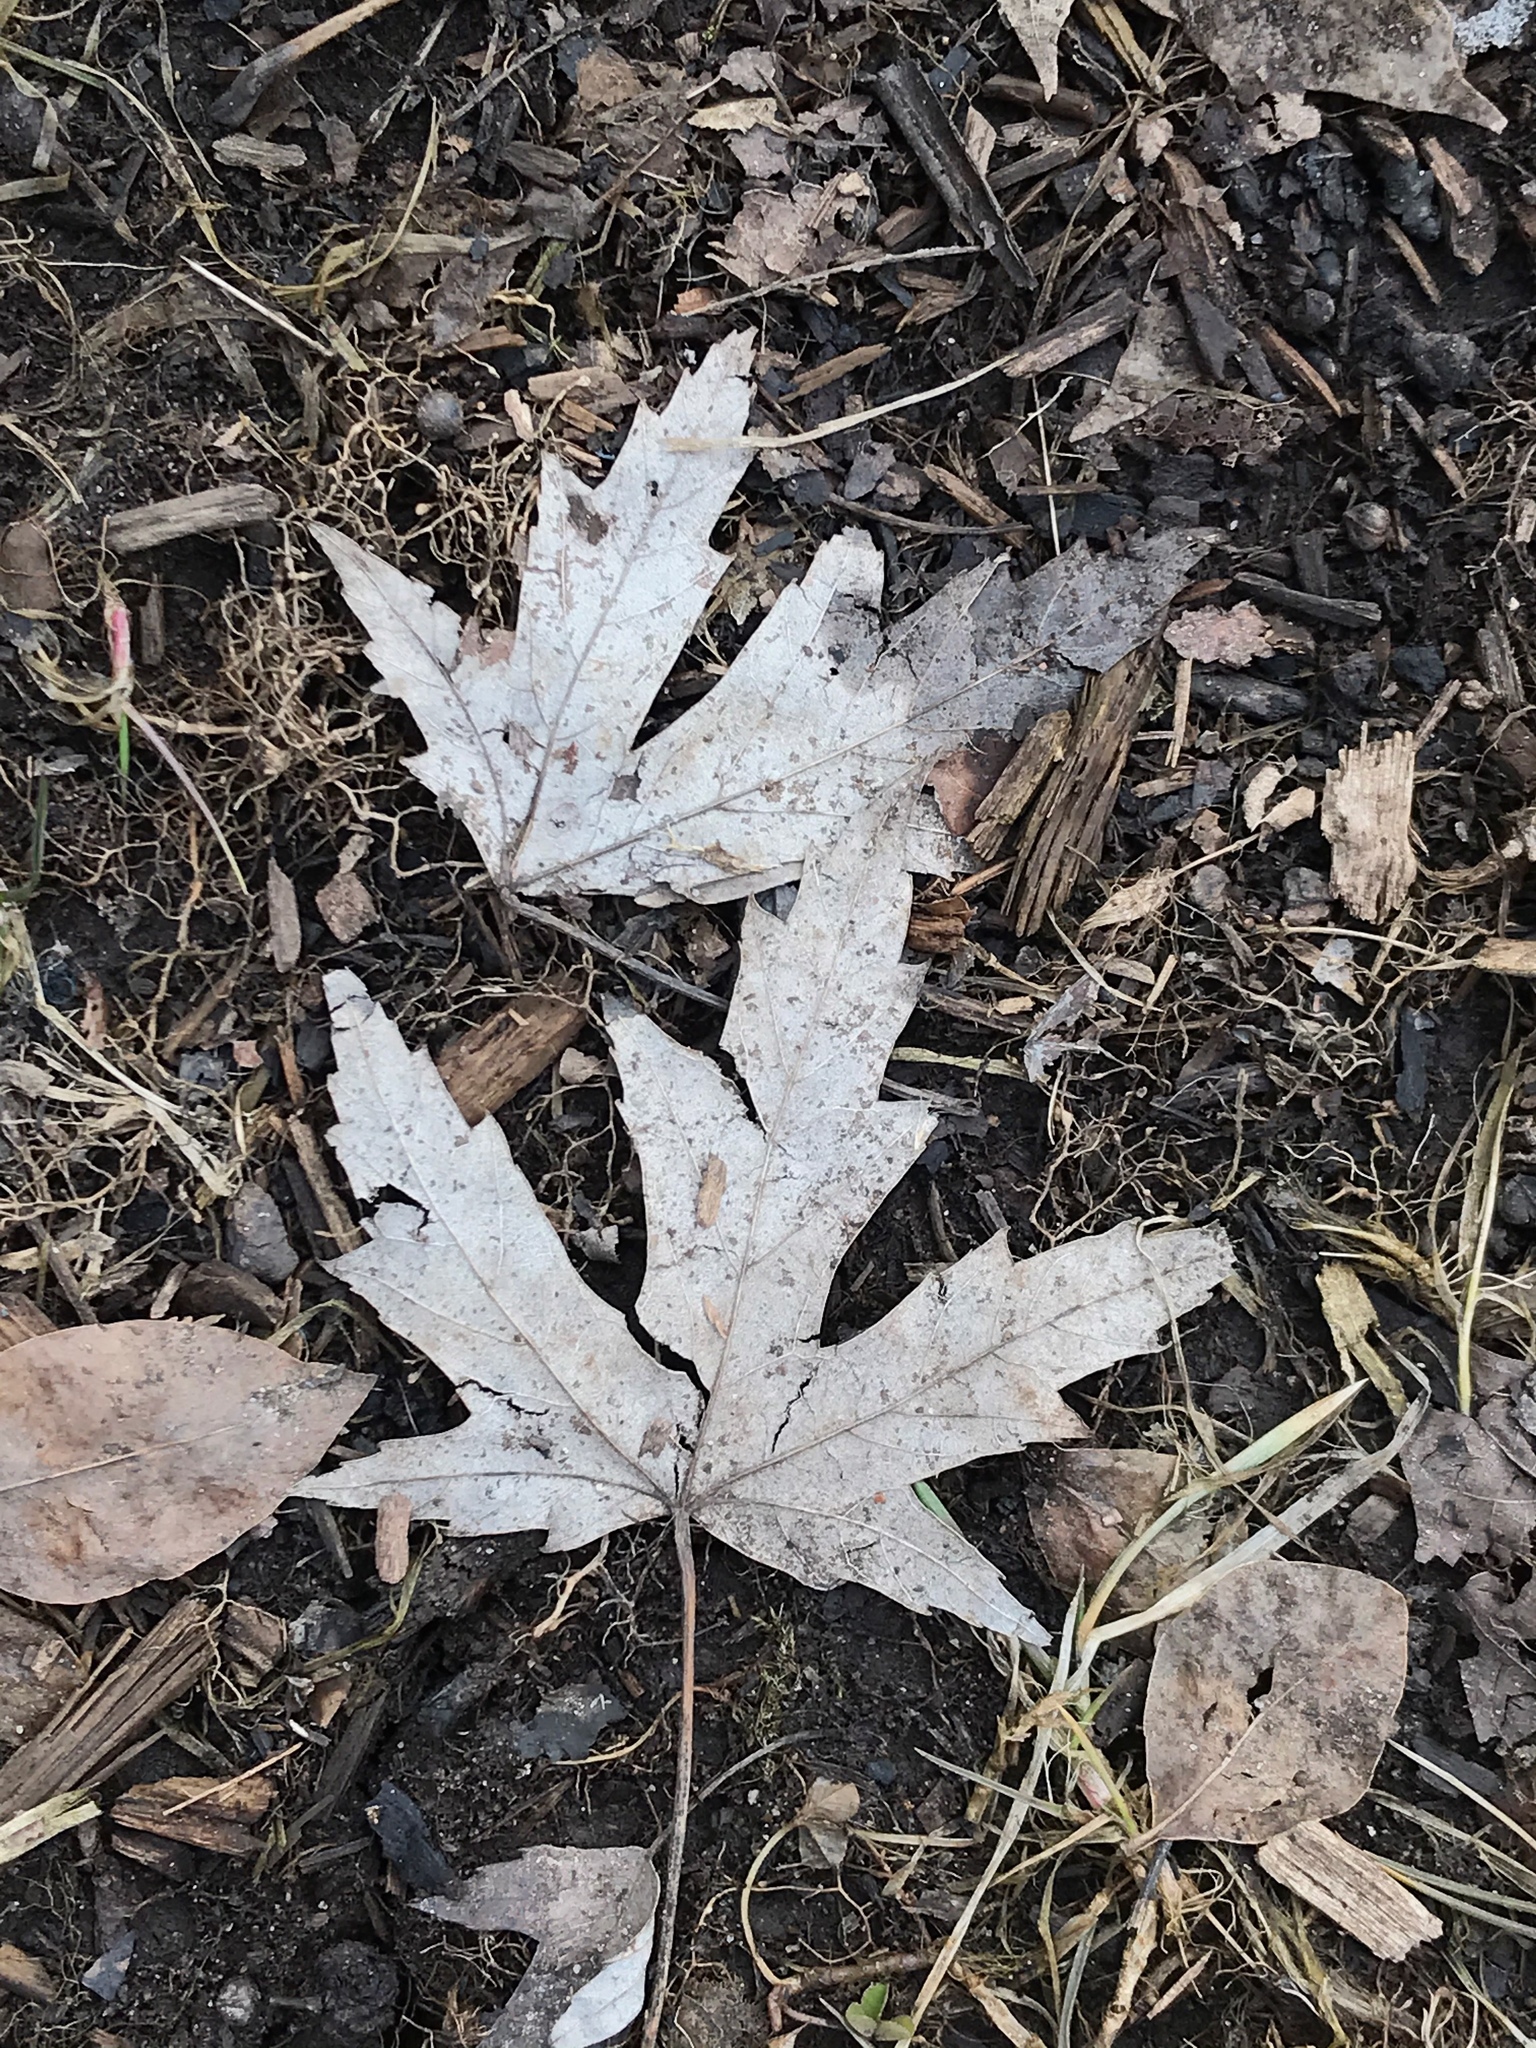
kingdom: Plantae
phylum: Tracheophyta
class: Magnoliopsida
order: Sapindales
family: Sapindaceae
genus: Acer
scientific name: Acer saccharinum
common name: Silver maple
